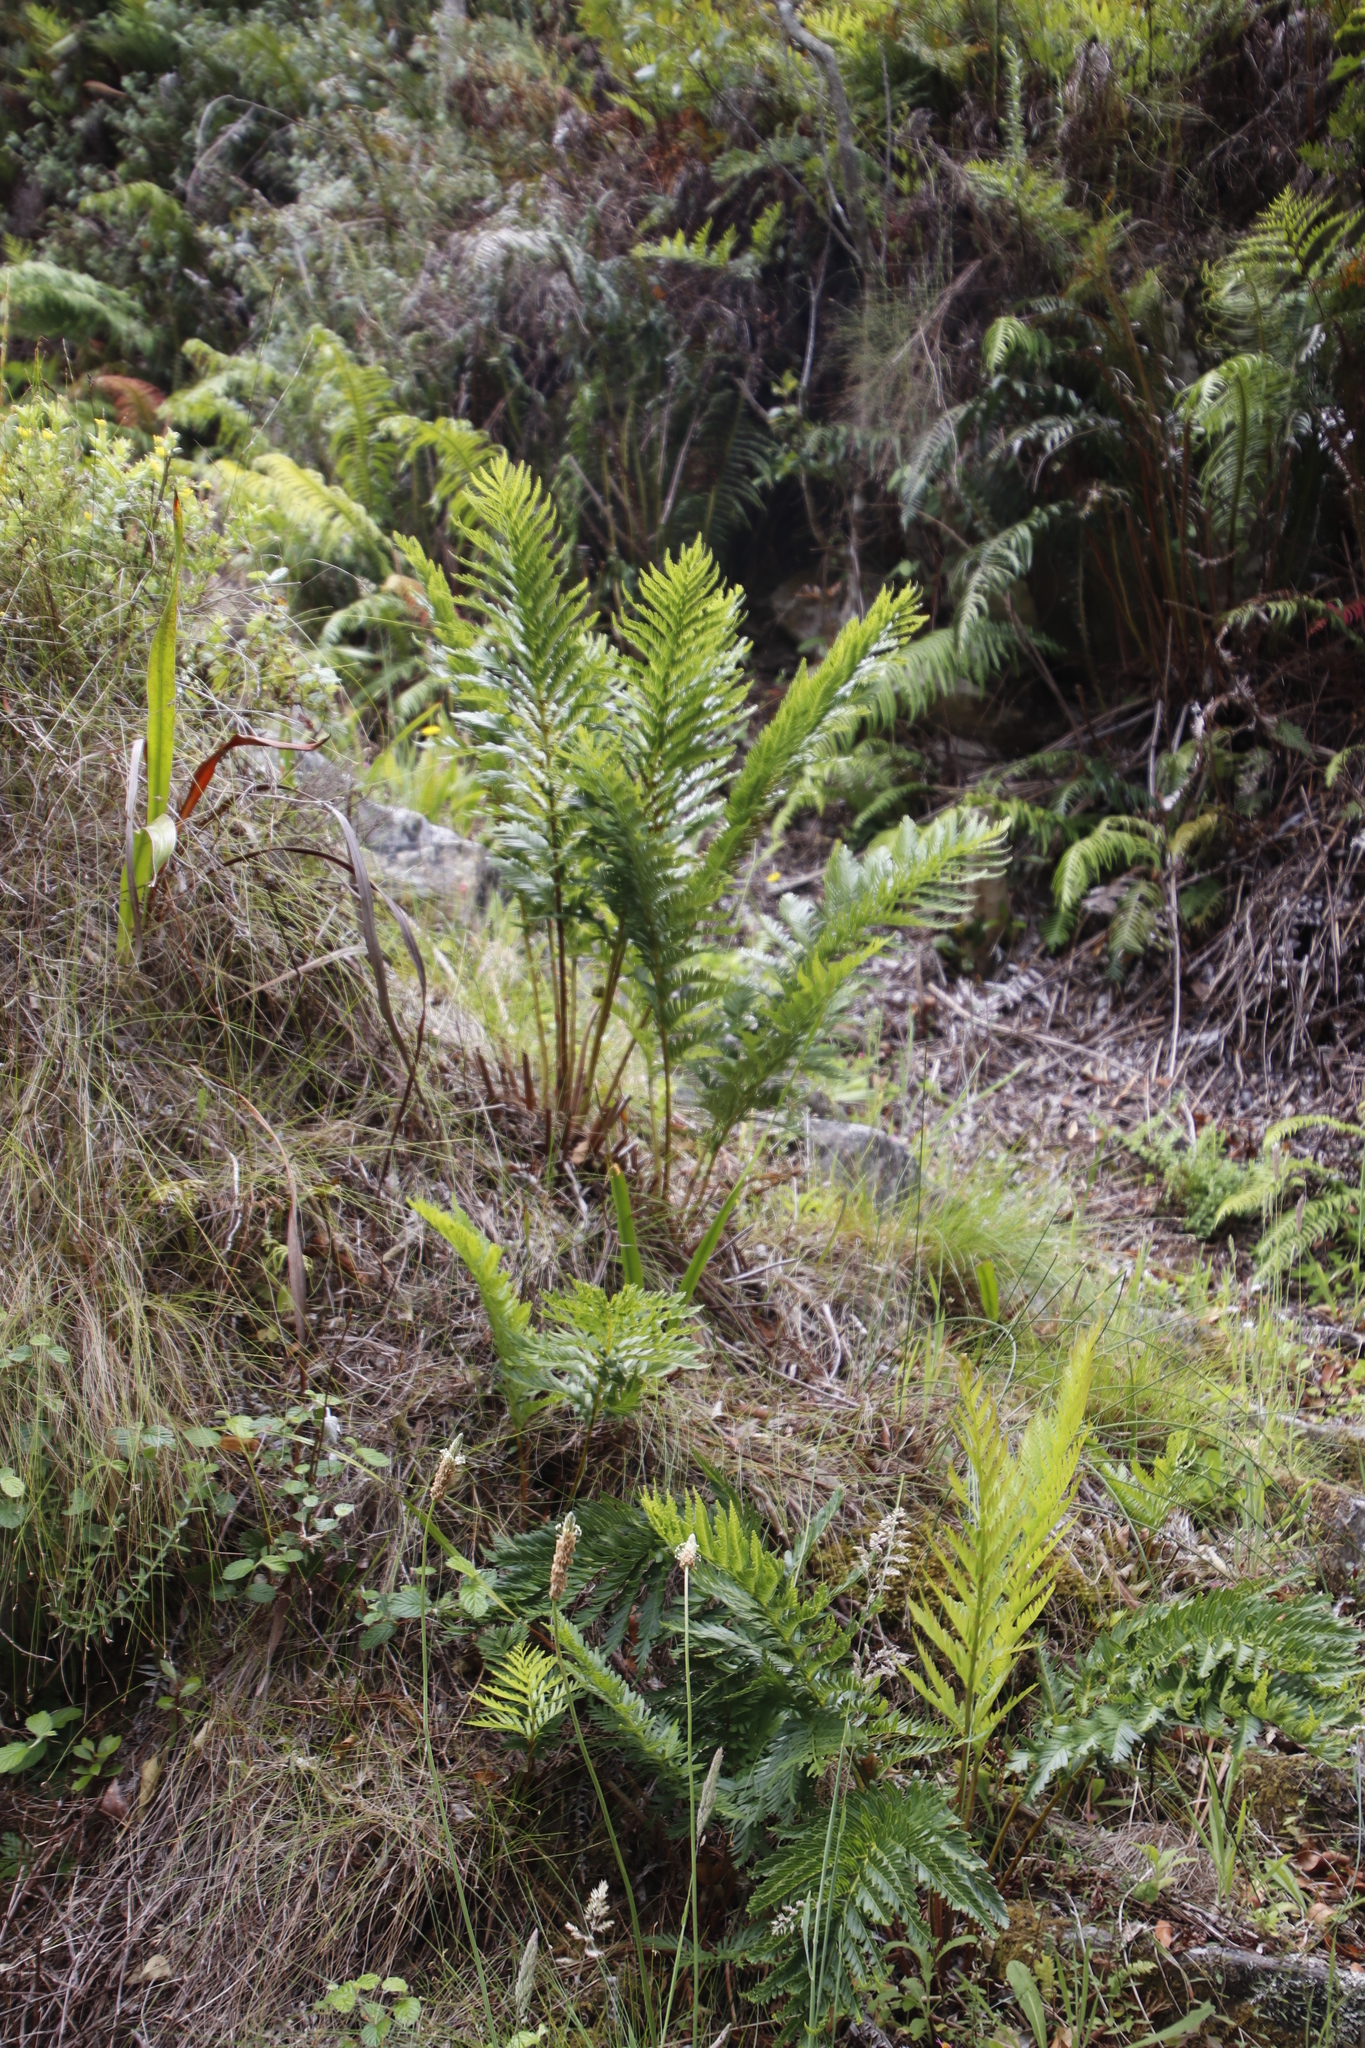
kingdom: Plantae
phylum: Tracheophyta
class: Polypodiopsida
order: Osmundales
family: Osmundaceae
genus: Todea
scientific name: Todea barbara
